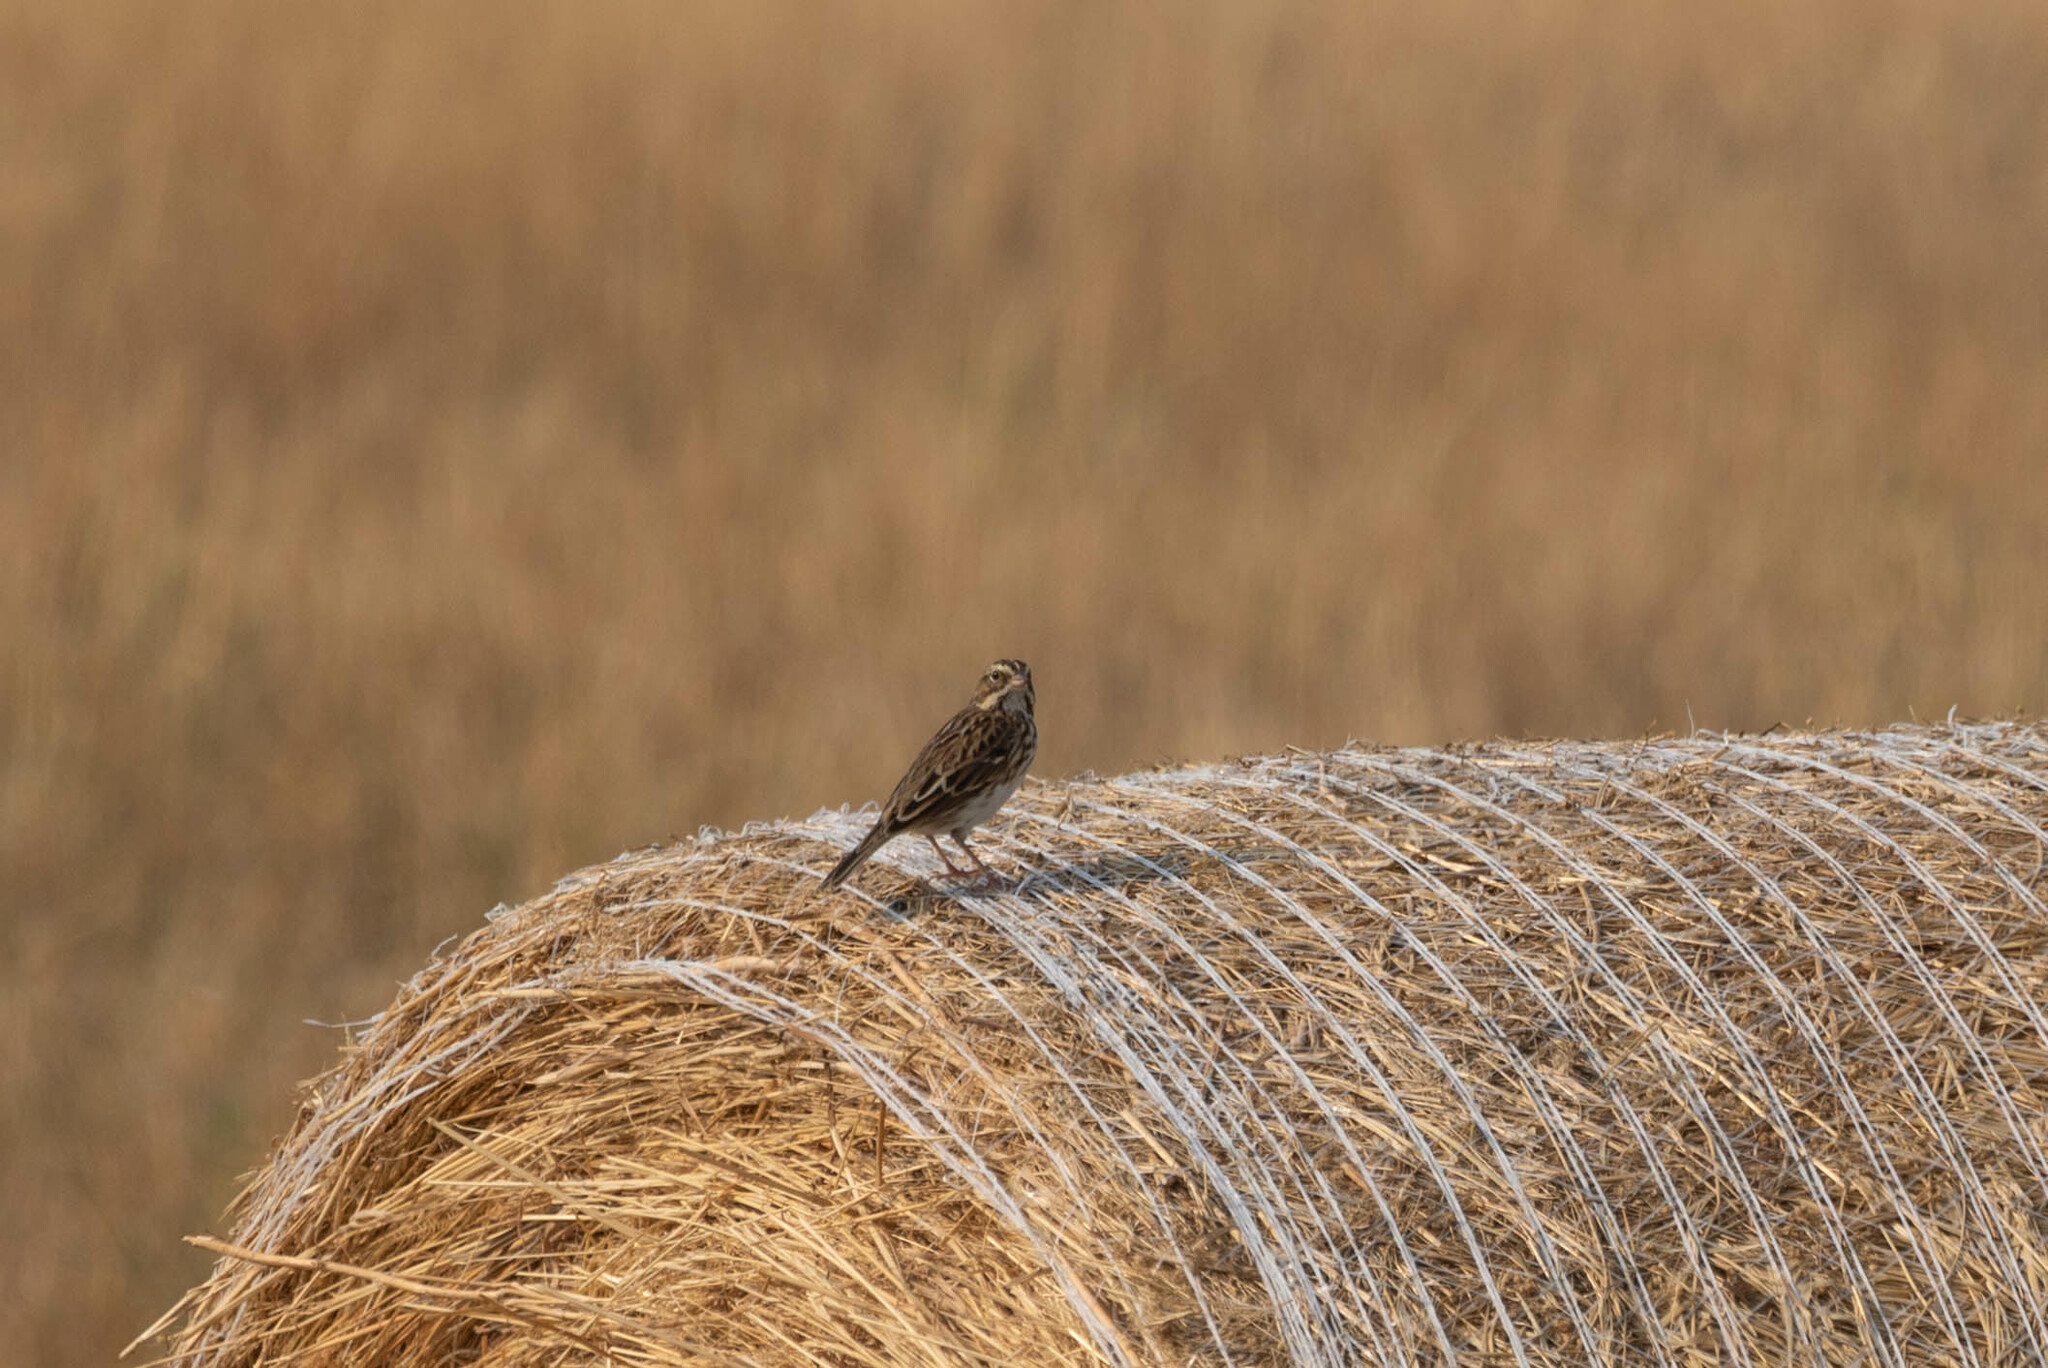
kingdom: Animalia
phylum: Chordata
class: Aves
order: Passeriformes
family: Passerellidae
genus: Passerculus
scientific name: Passerculus sandwichensis
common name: Savannah sparrow
